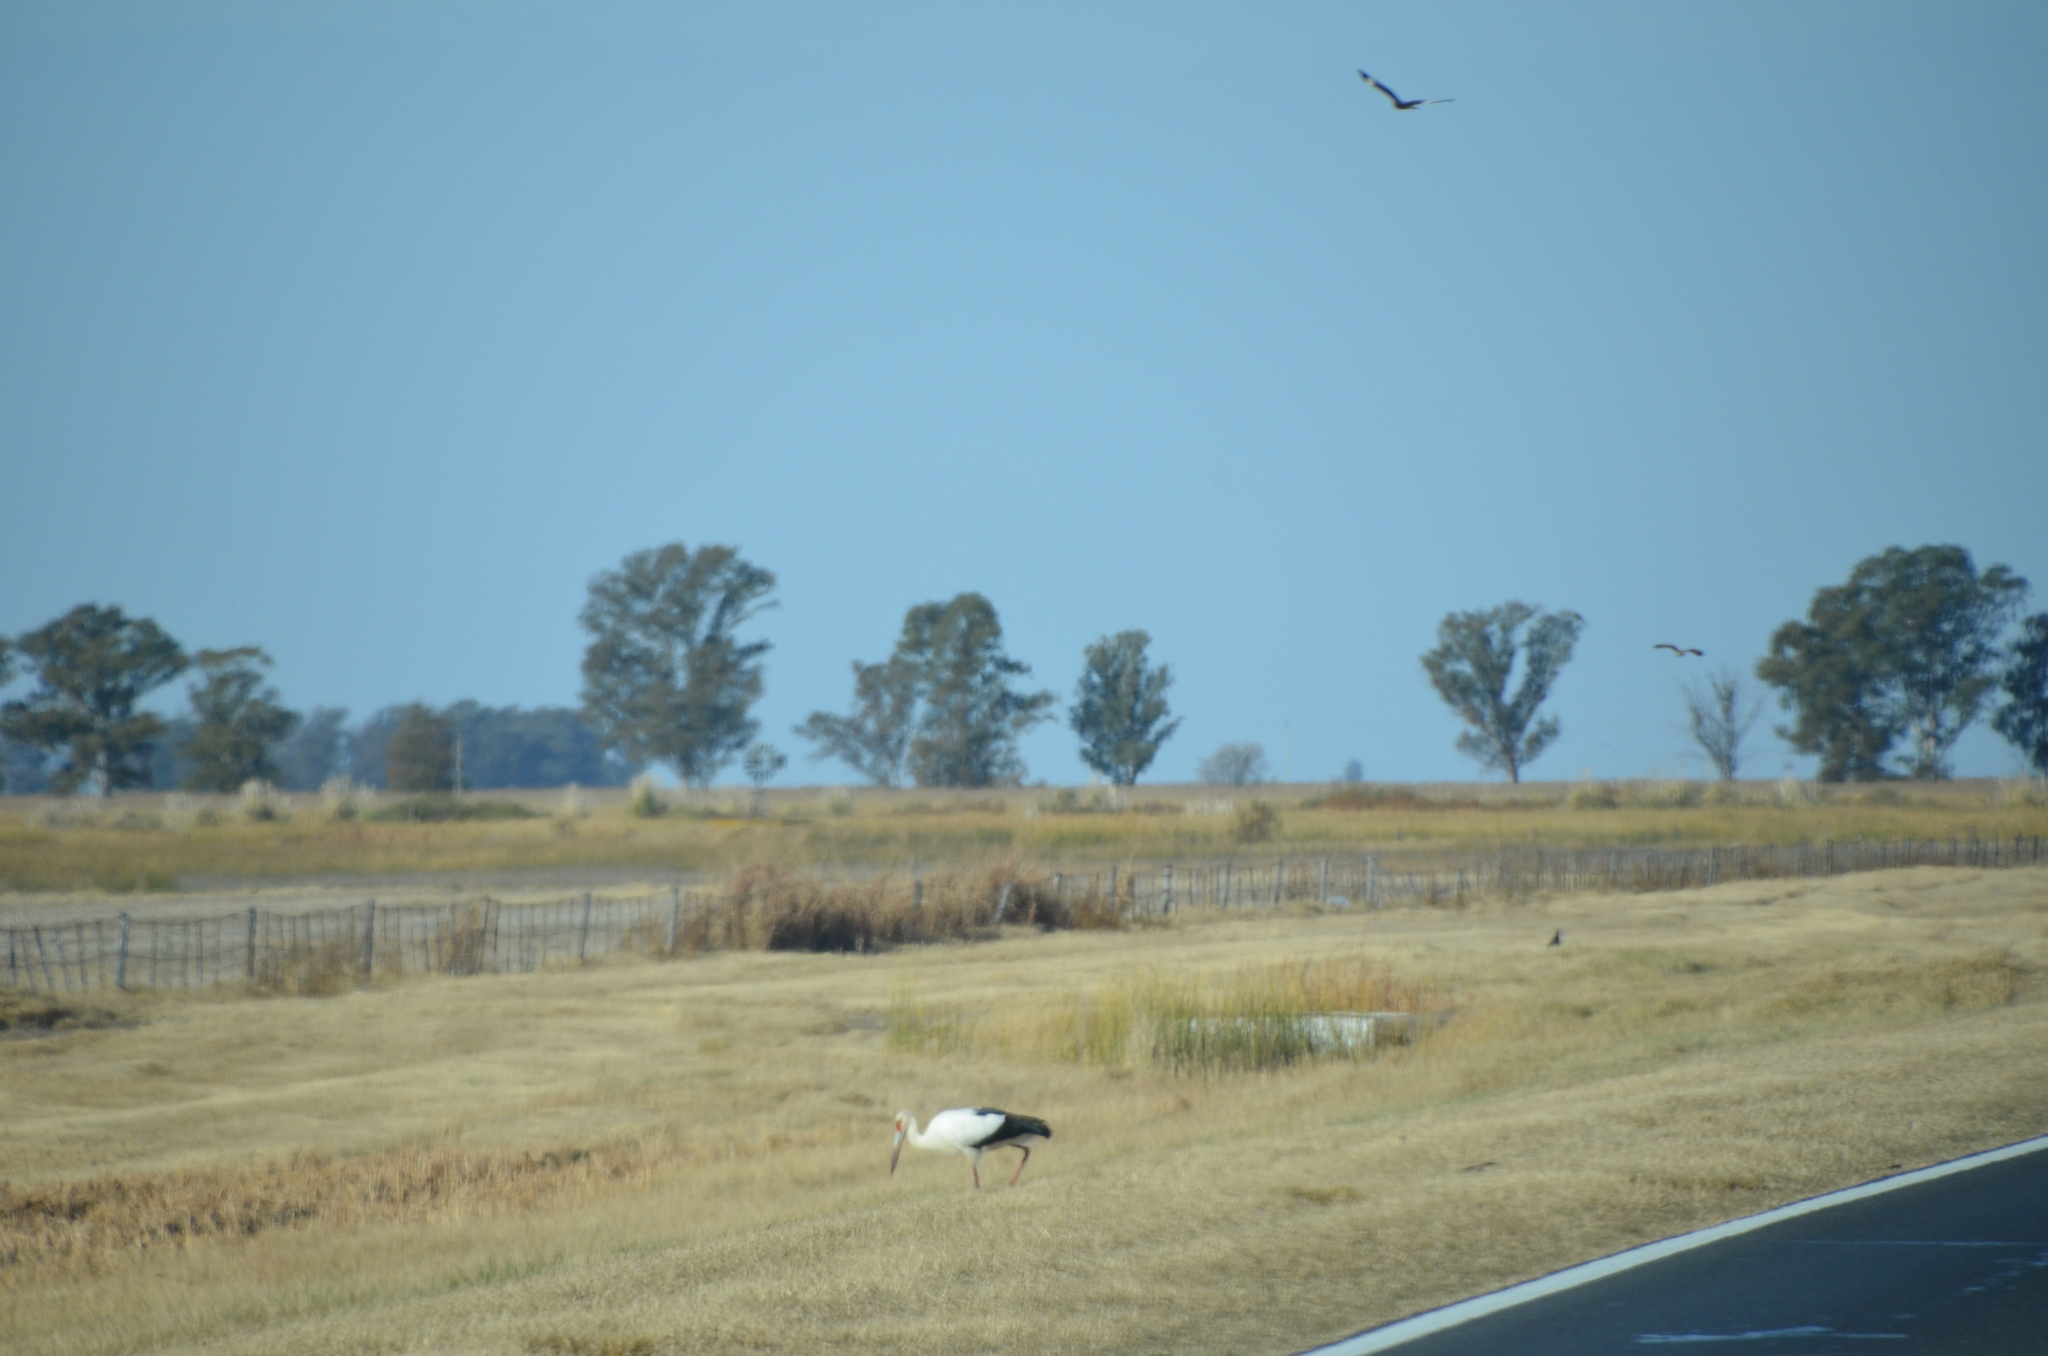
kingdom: Animalia
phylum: Chordata
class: Aves
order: Ciconiiformes
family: Ciconiidae
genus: Ciconia
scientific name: Ciconia maguari
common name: Maguari stork
